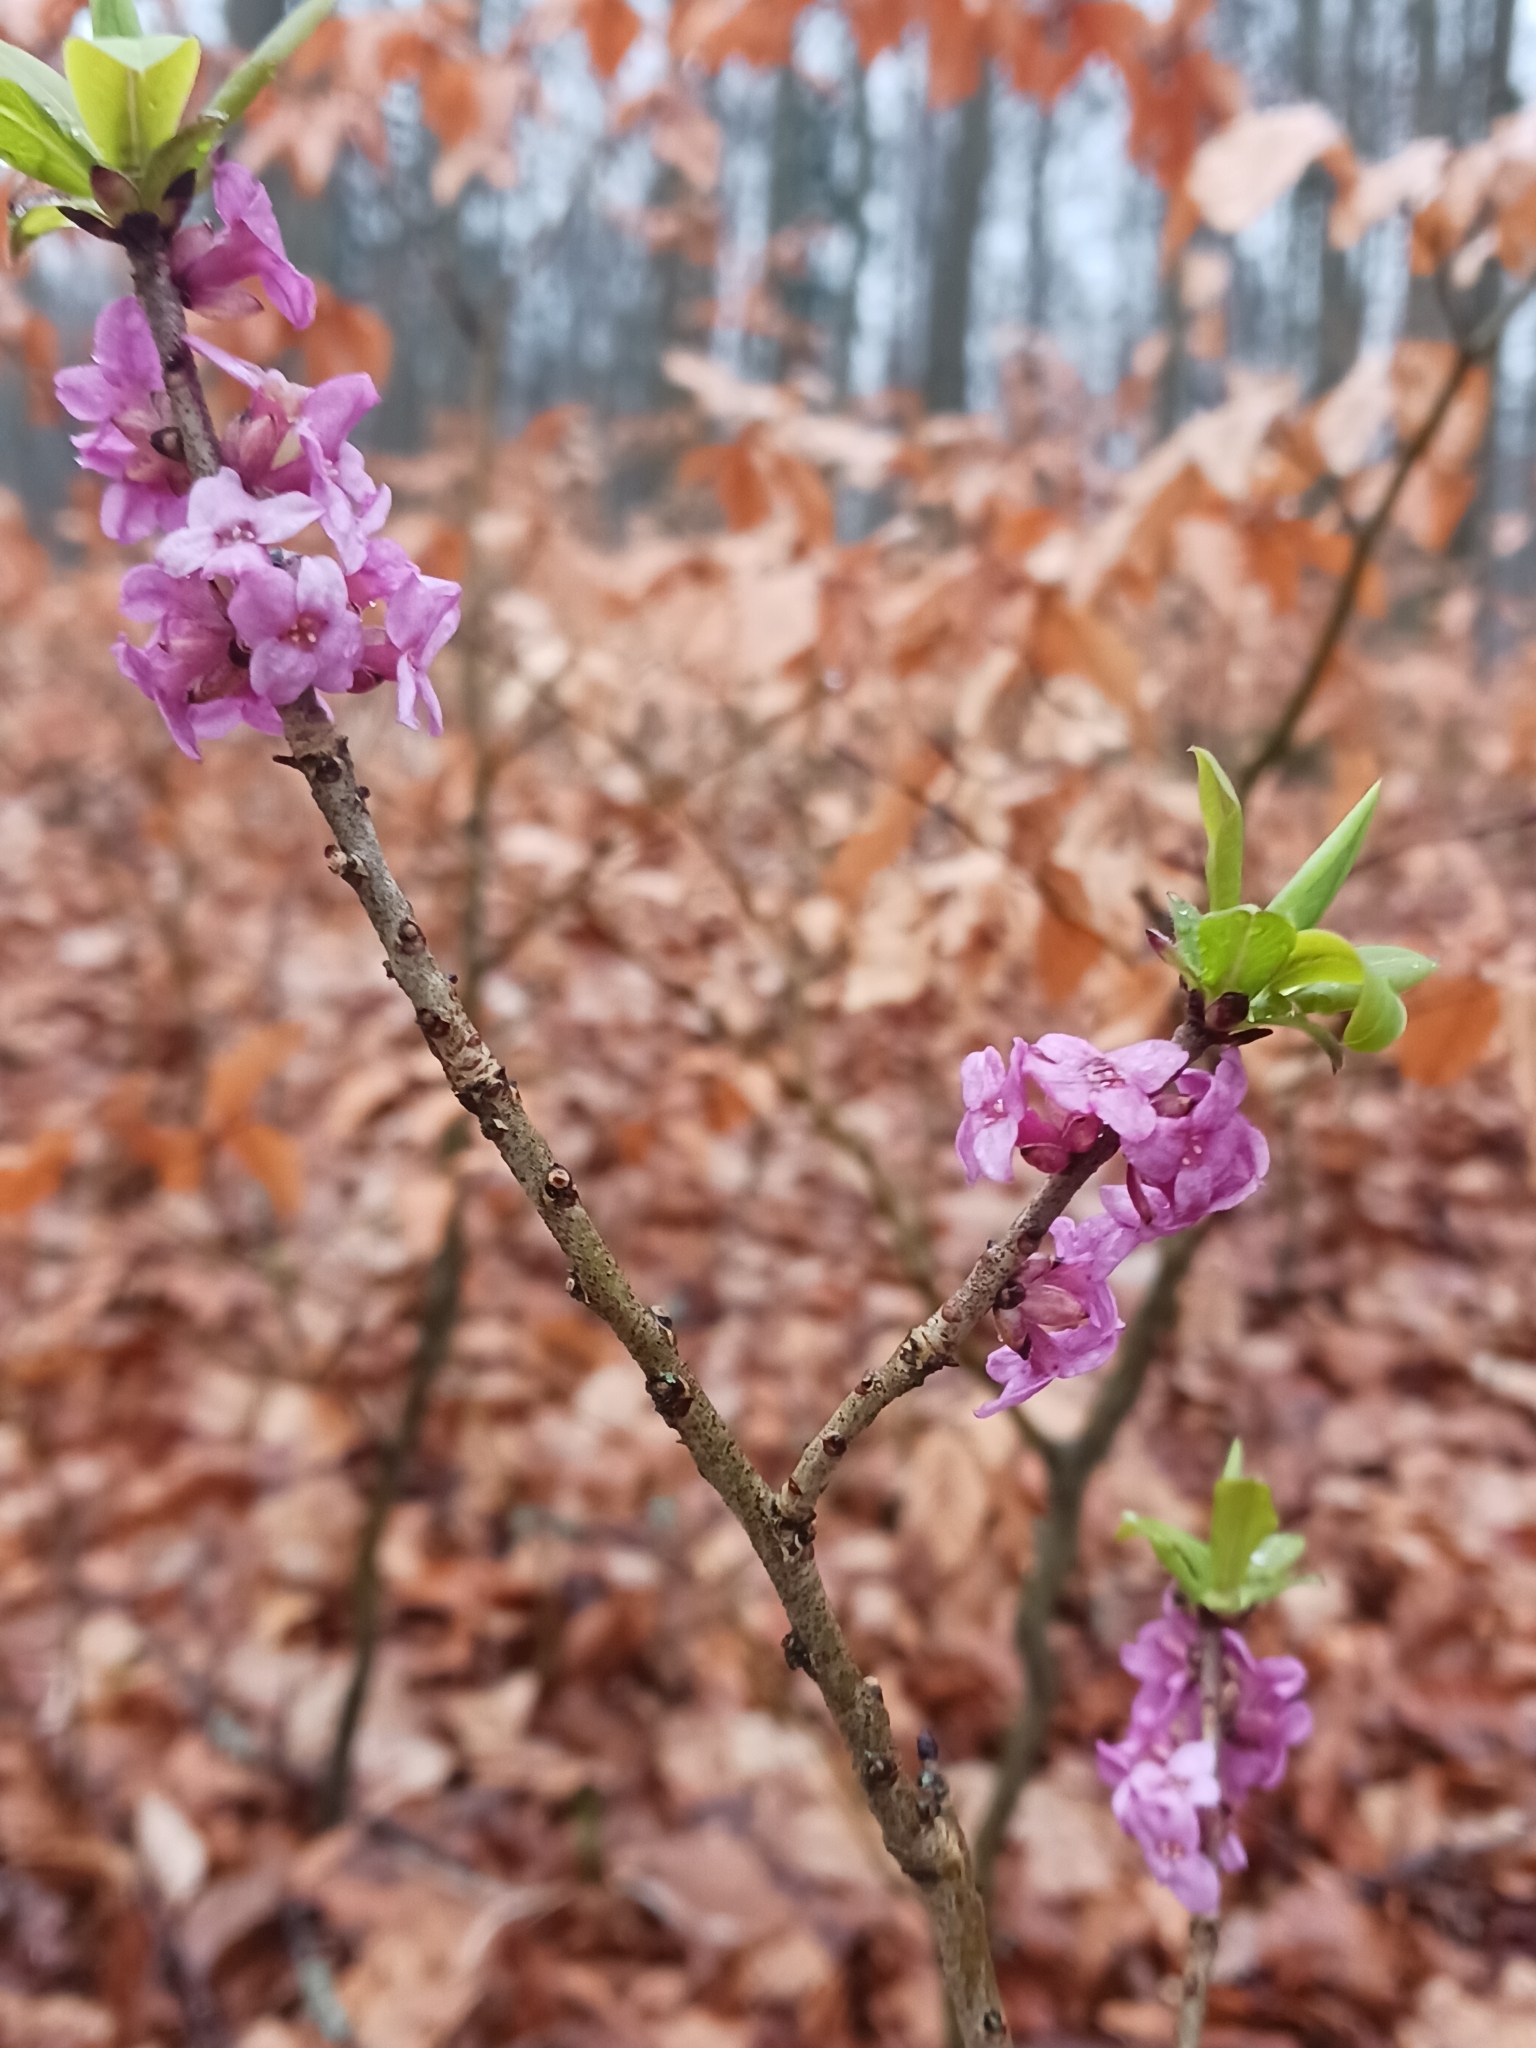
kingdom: Plantae
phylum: Tracheophyta
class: Magnoliopsida
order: Malvales
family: Thymelaeaceae
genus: Daphne
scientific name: Daphne mezereum
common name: Mezereon
